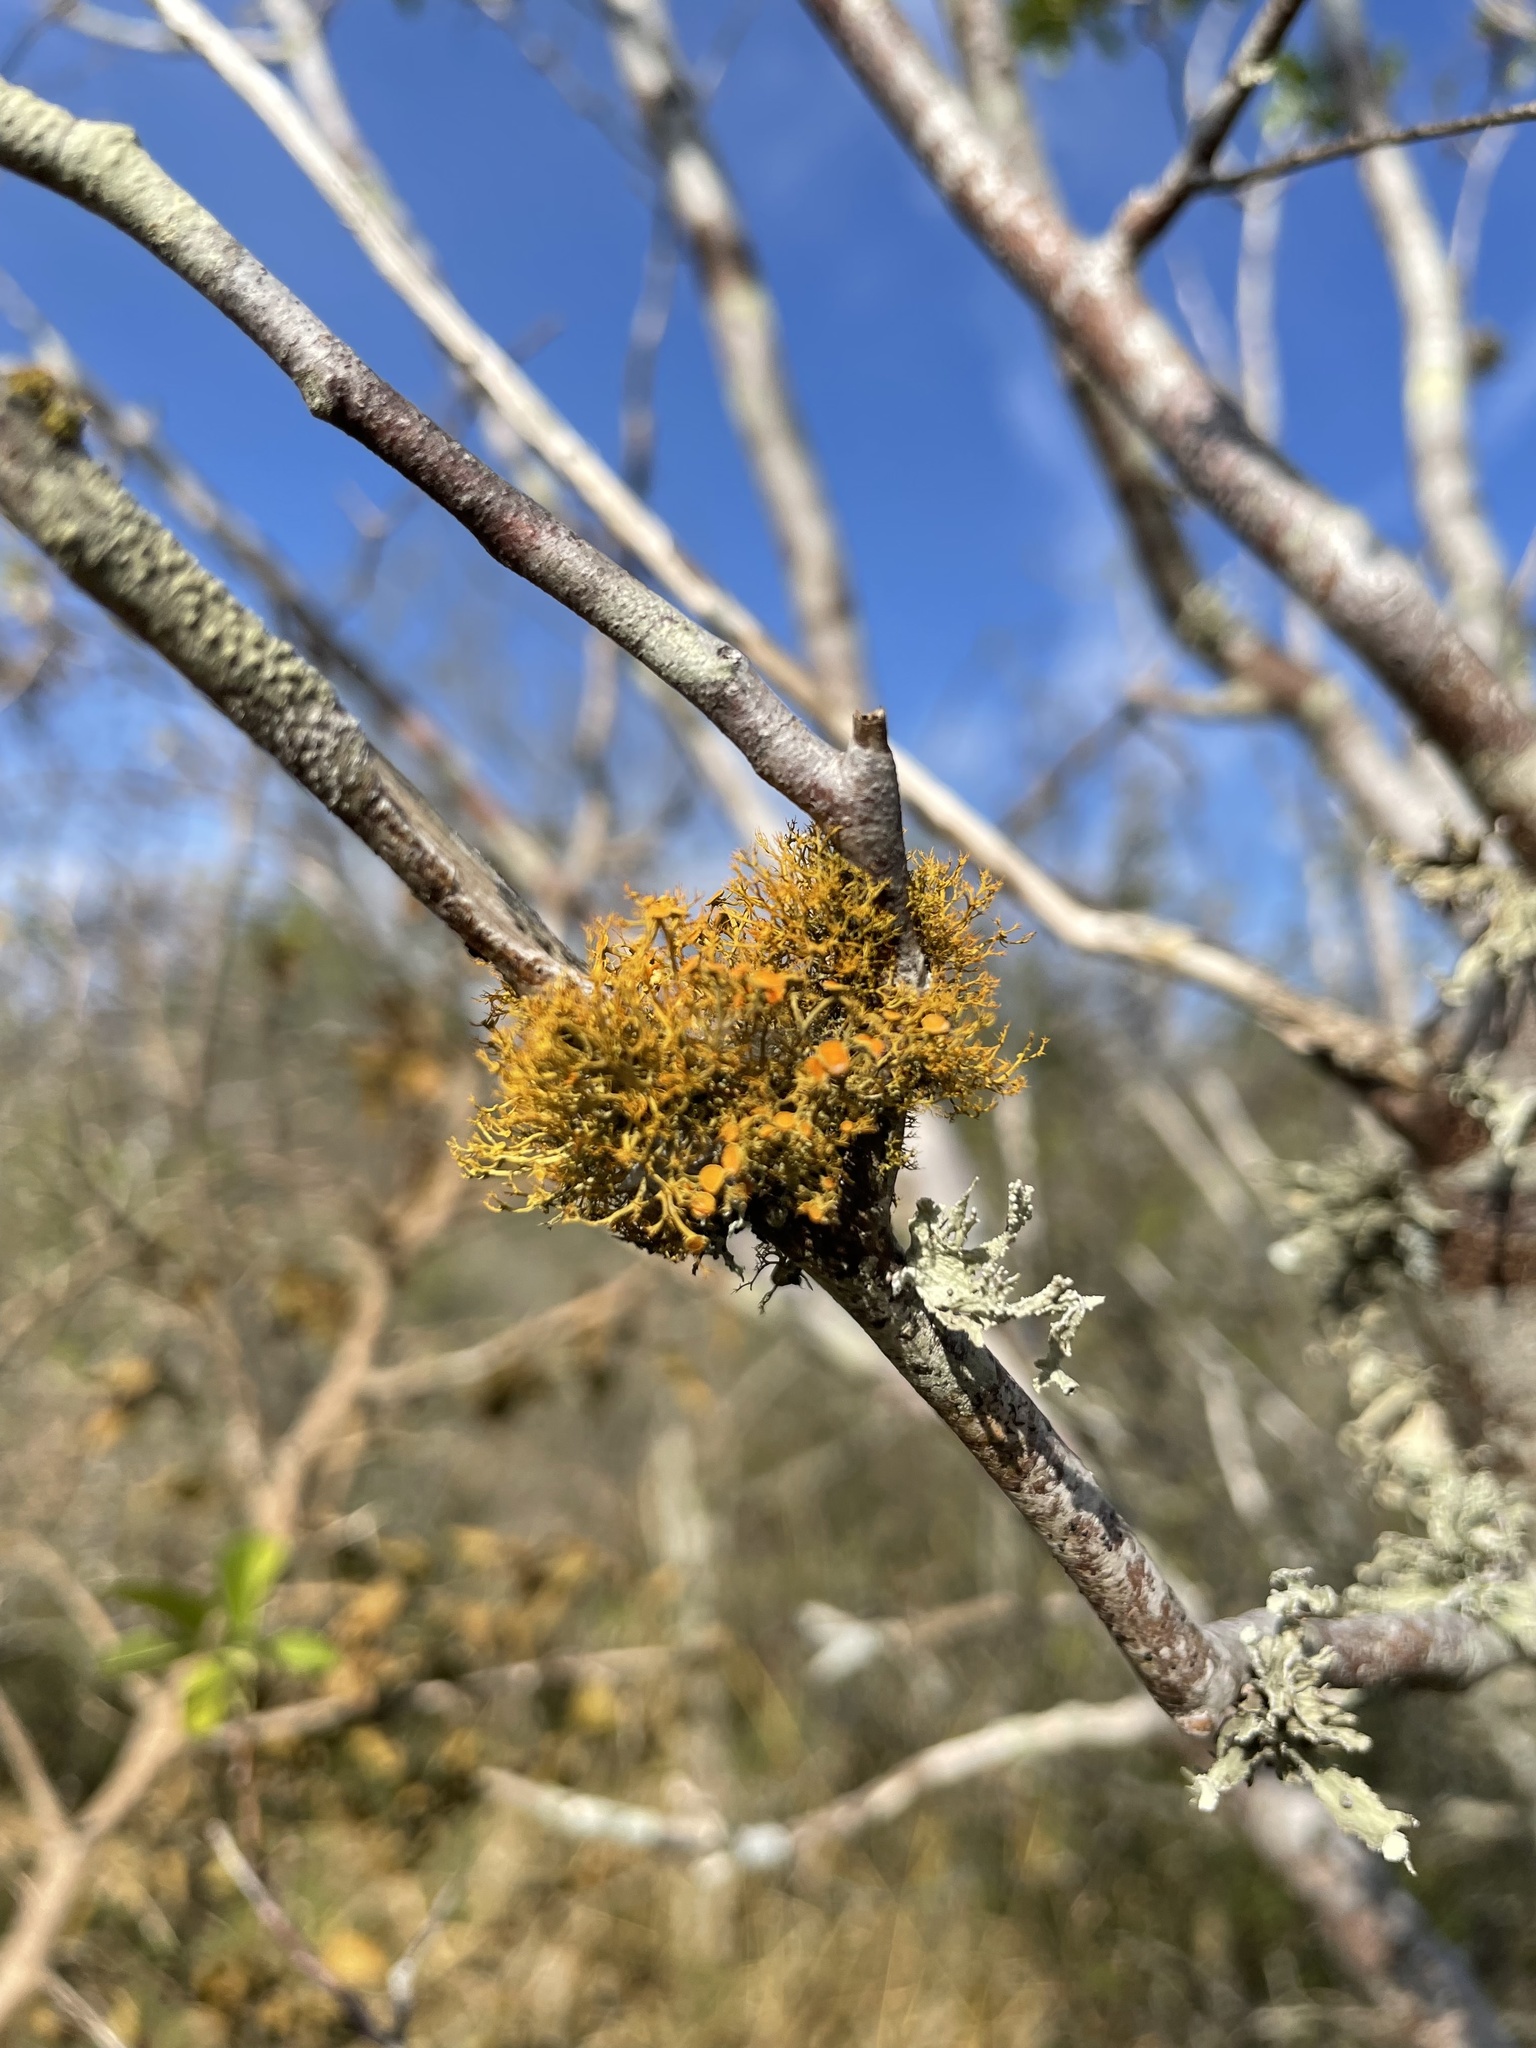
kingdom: Fungi
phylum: Ascomycota
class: Lecanoromycetes
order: Teloschistales
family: Teloschistaceae
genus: Teloschistes
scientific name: Teloschistes exilis
